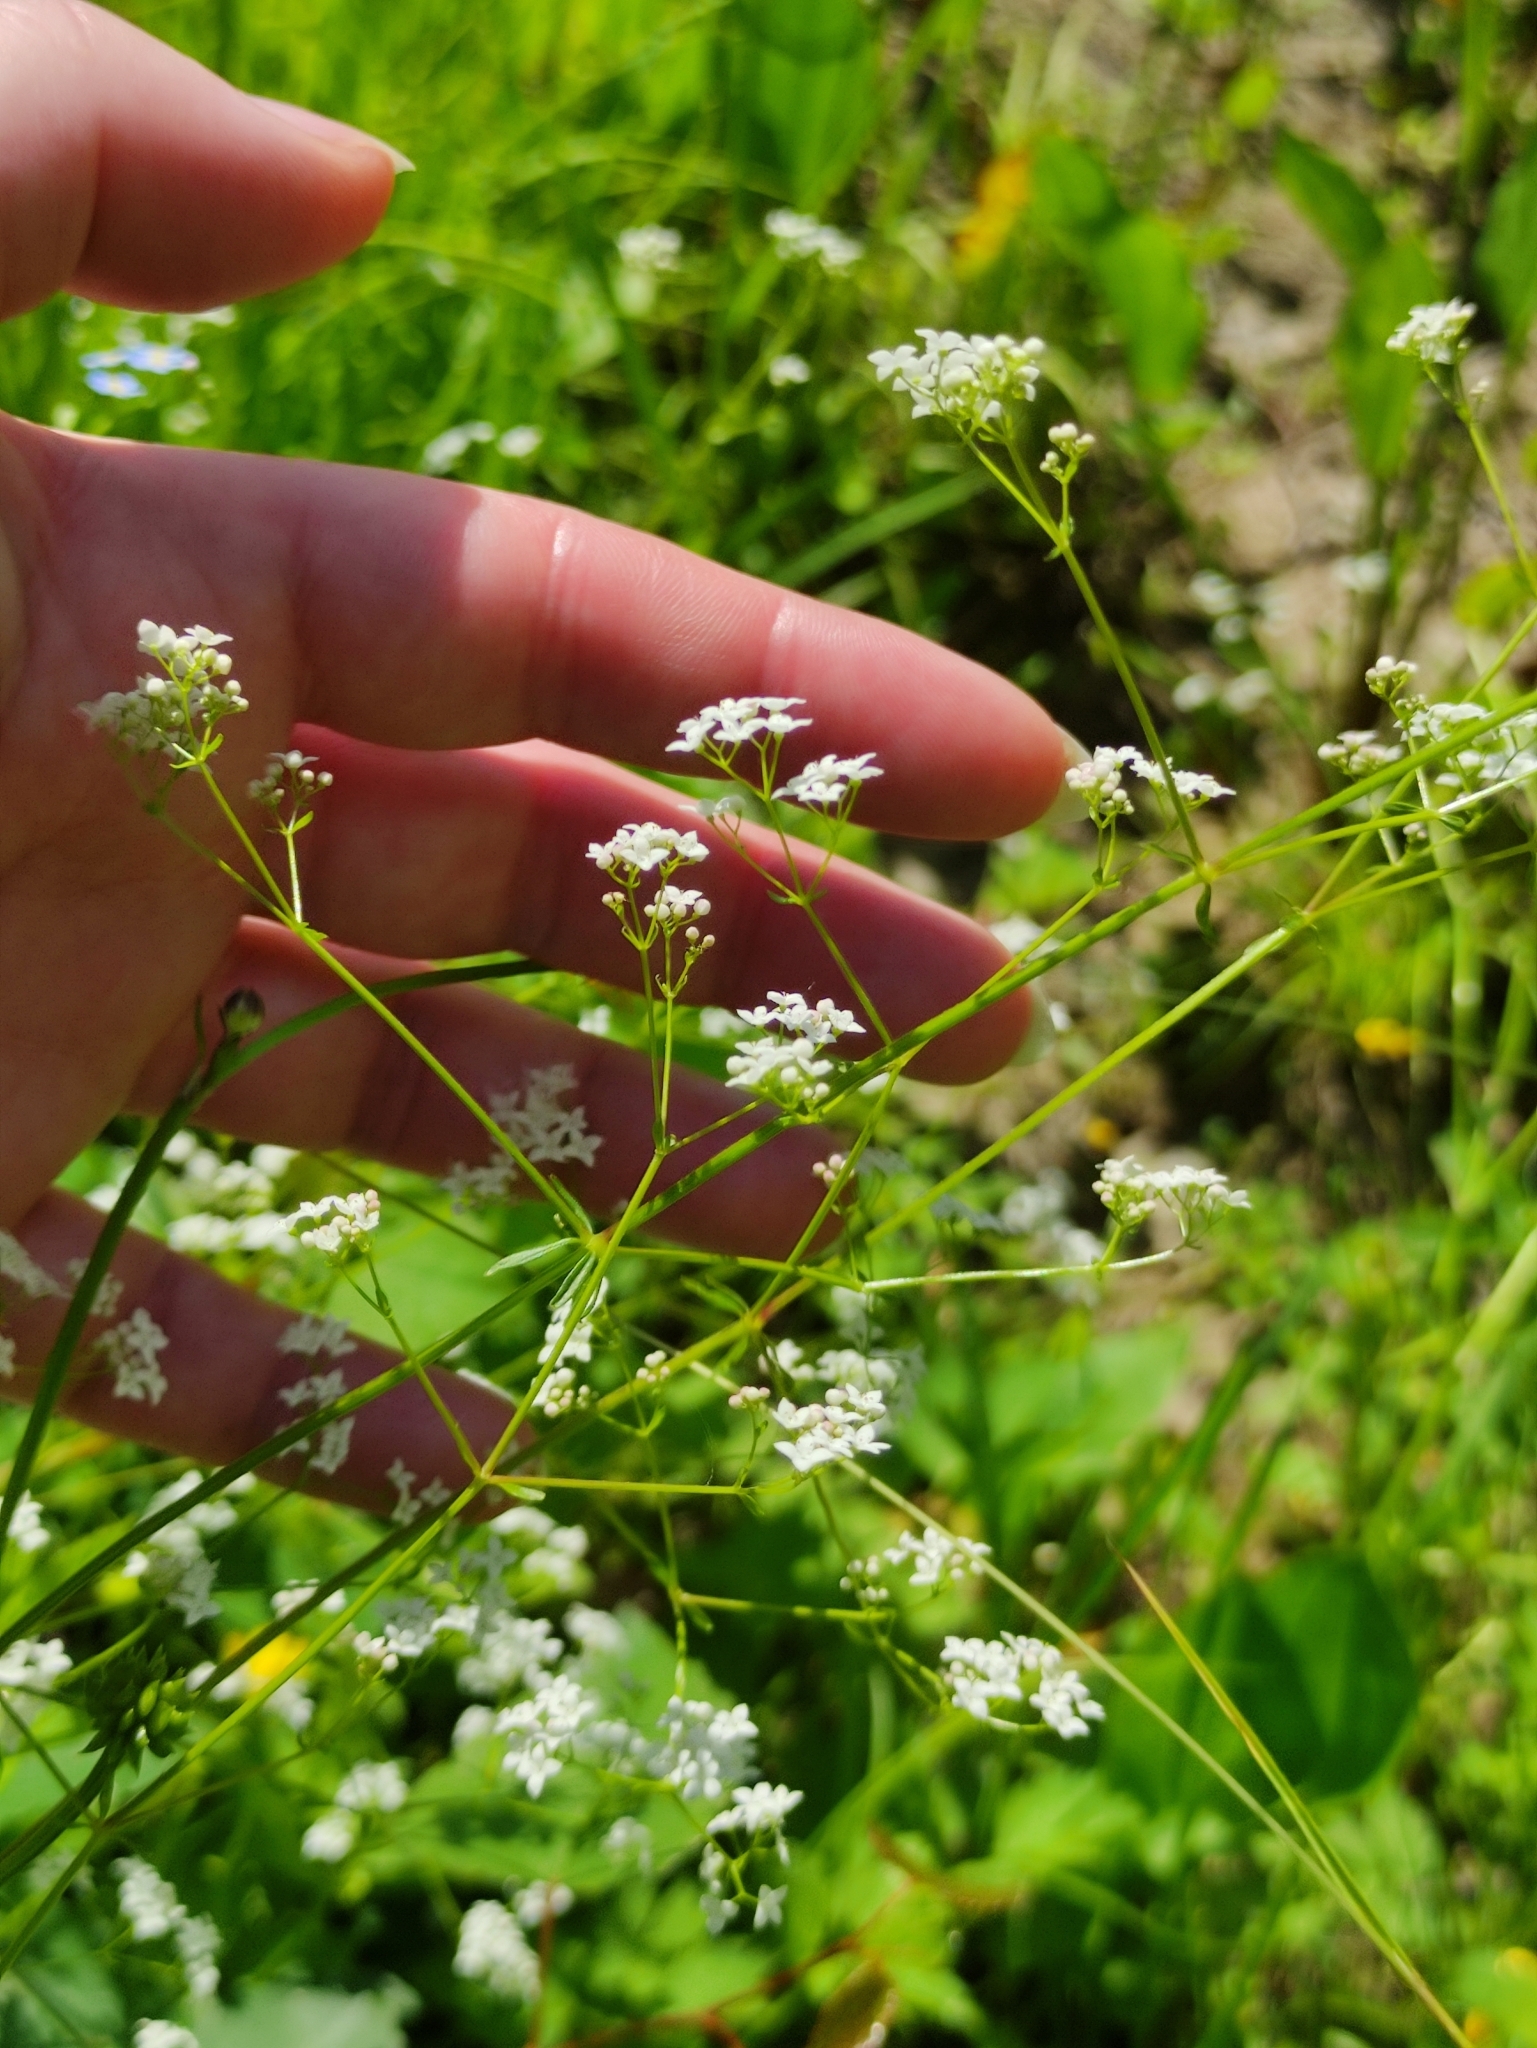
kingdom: Plantae
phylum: Tracheophyta
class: Magnoliopsida
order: Gentianales
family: Rubiaceae
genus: Galium
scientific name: Galium palustre
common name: Common marsh-bedstraw
